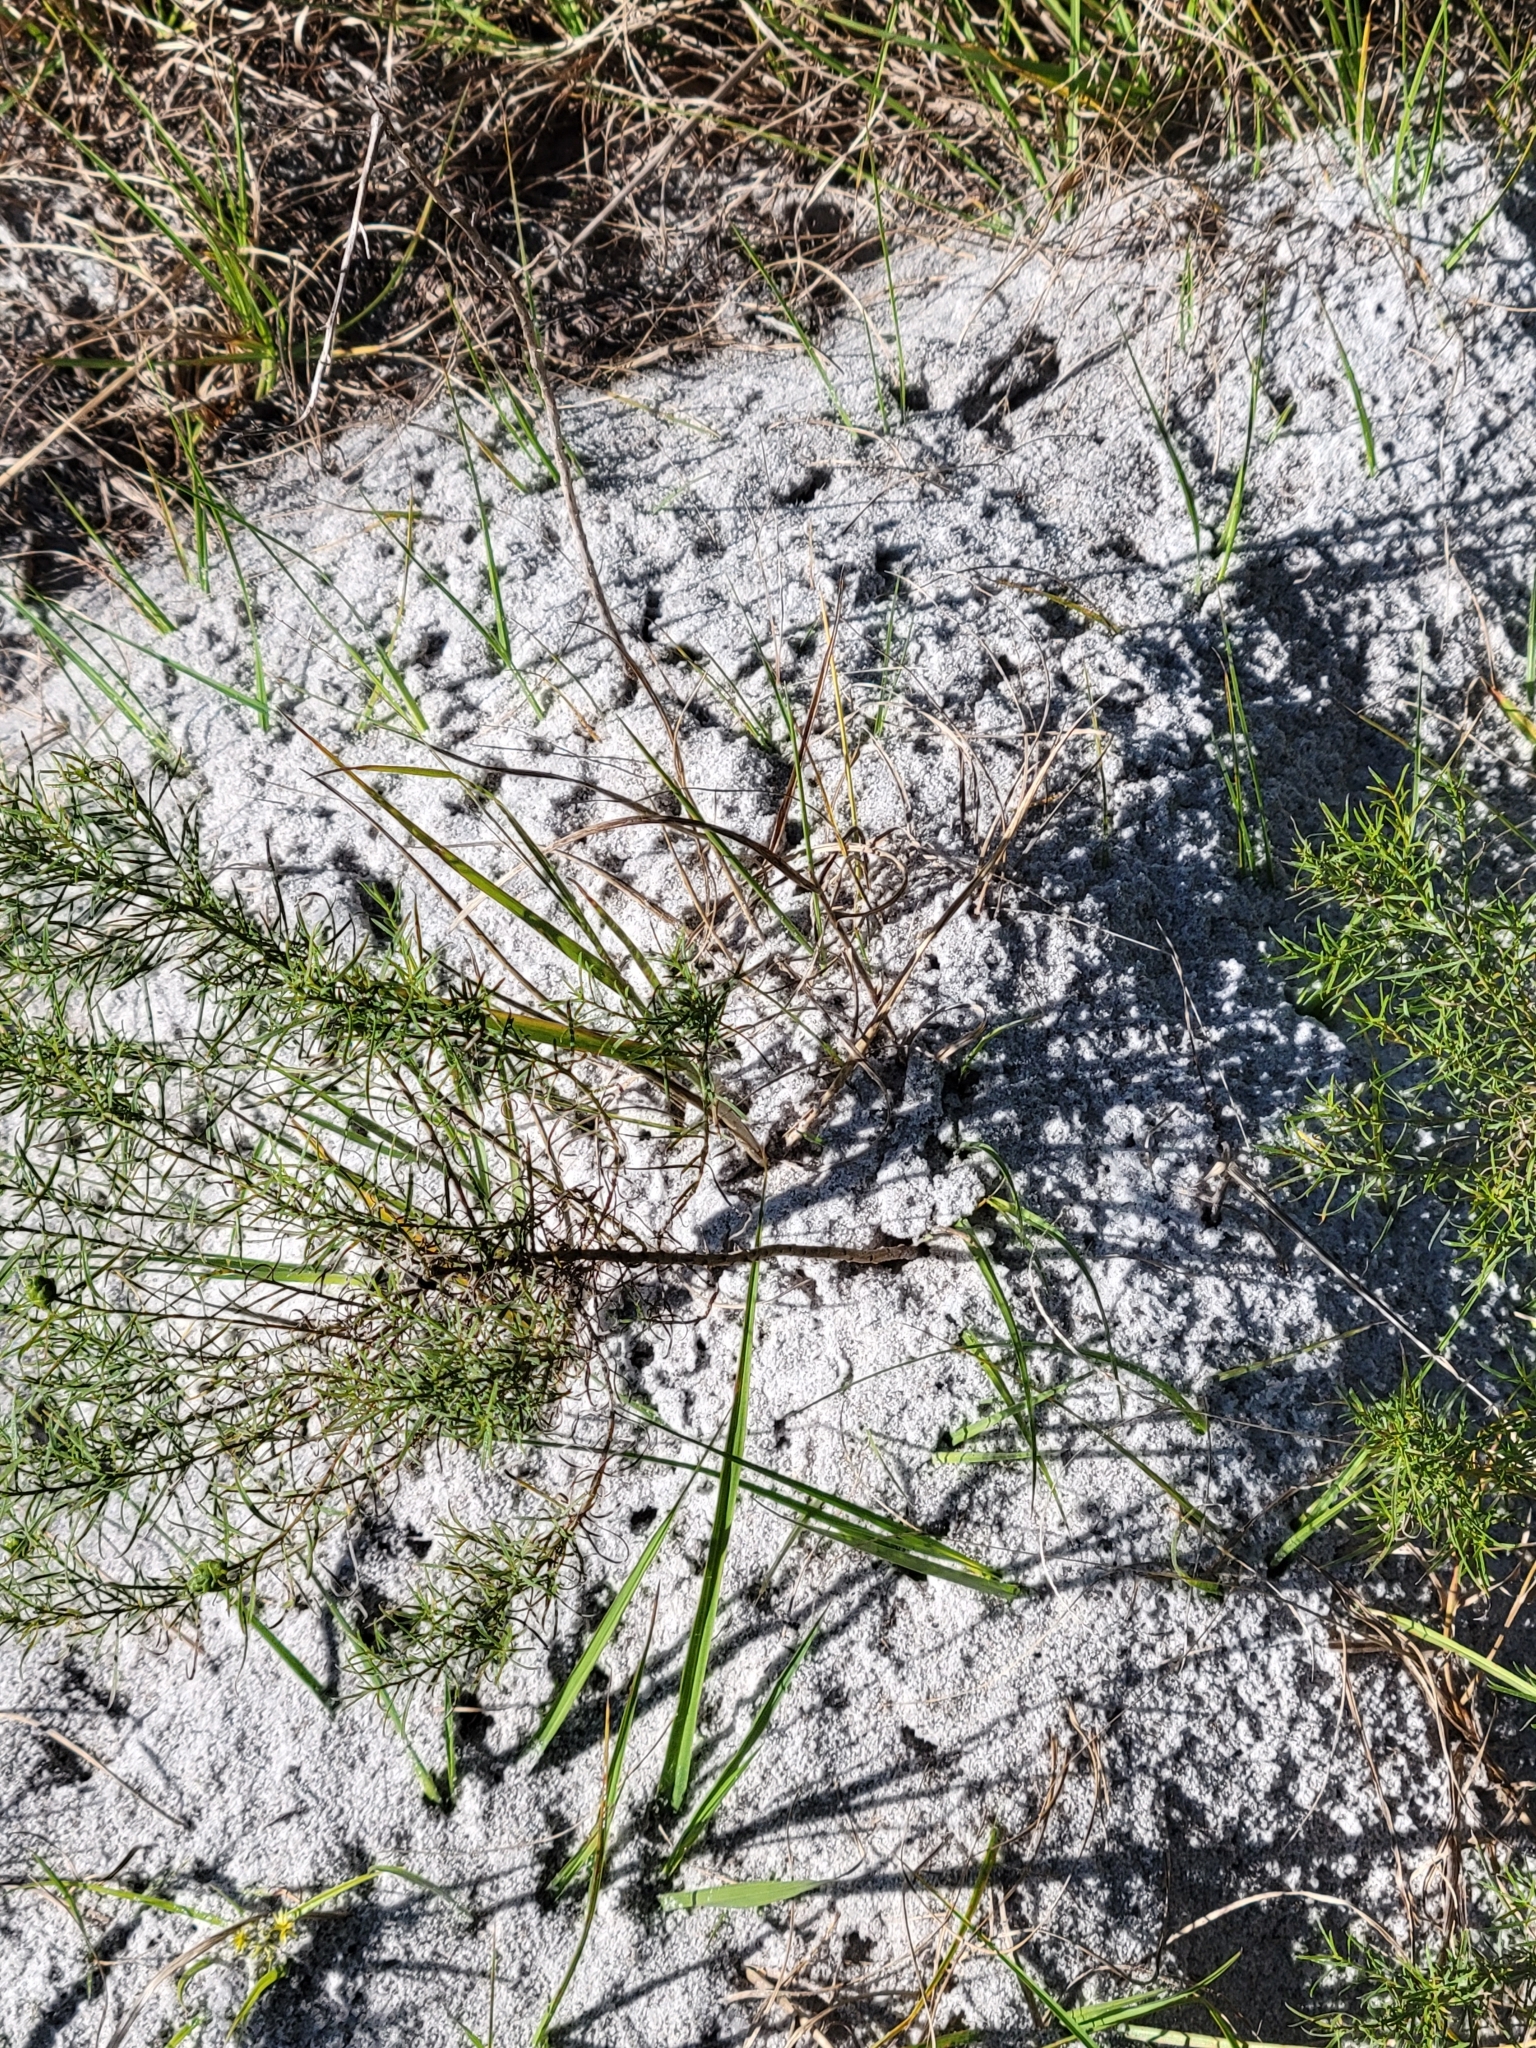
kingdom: Animalia
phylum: Arthropoda
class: Insecta
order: Hymenoptera
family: Formicidae
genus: Solenopsis
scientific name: Solenopsis invicta
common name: Red imported fire ant
